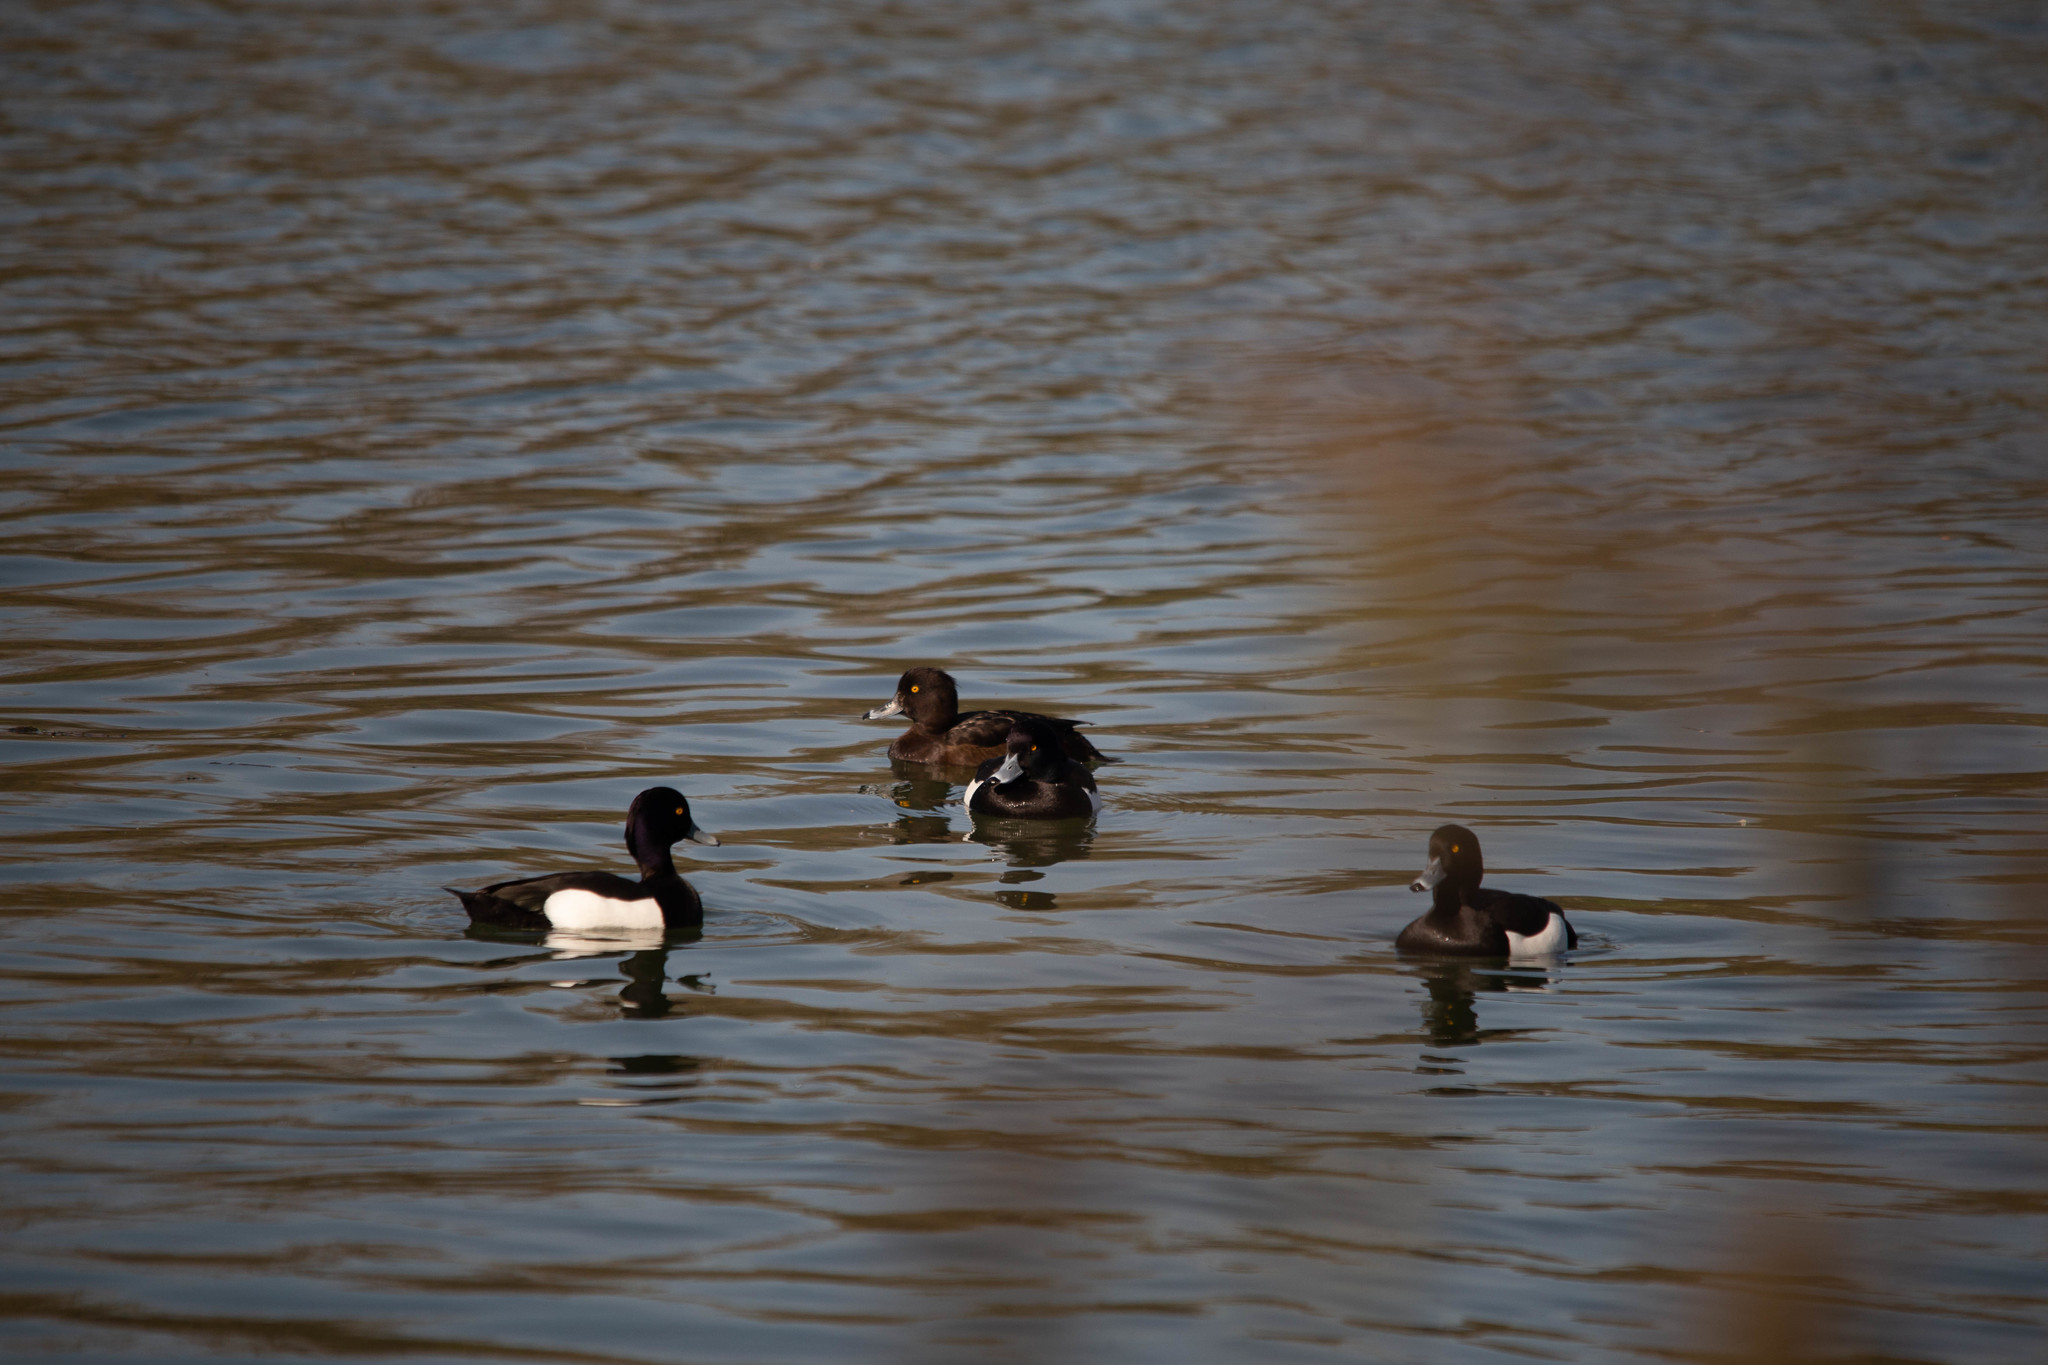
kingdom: Animalia
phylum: Chordata
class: Aves
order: Anseriformes
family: Anatidae
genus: Aythya
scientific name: Aythya fuligula
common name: Tufted duck
